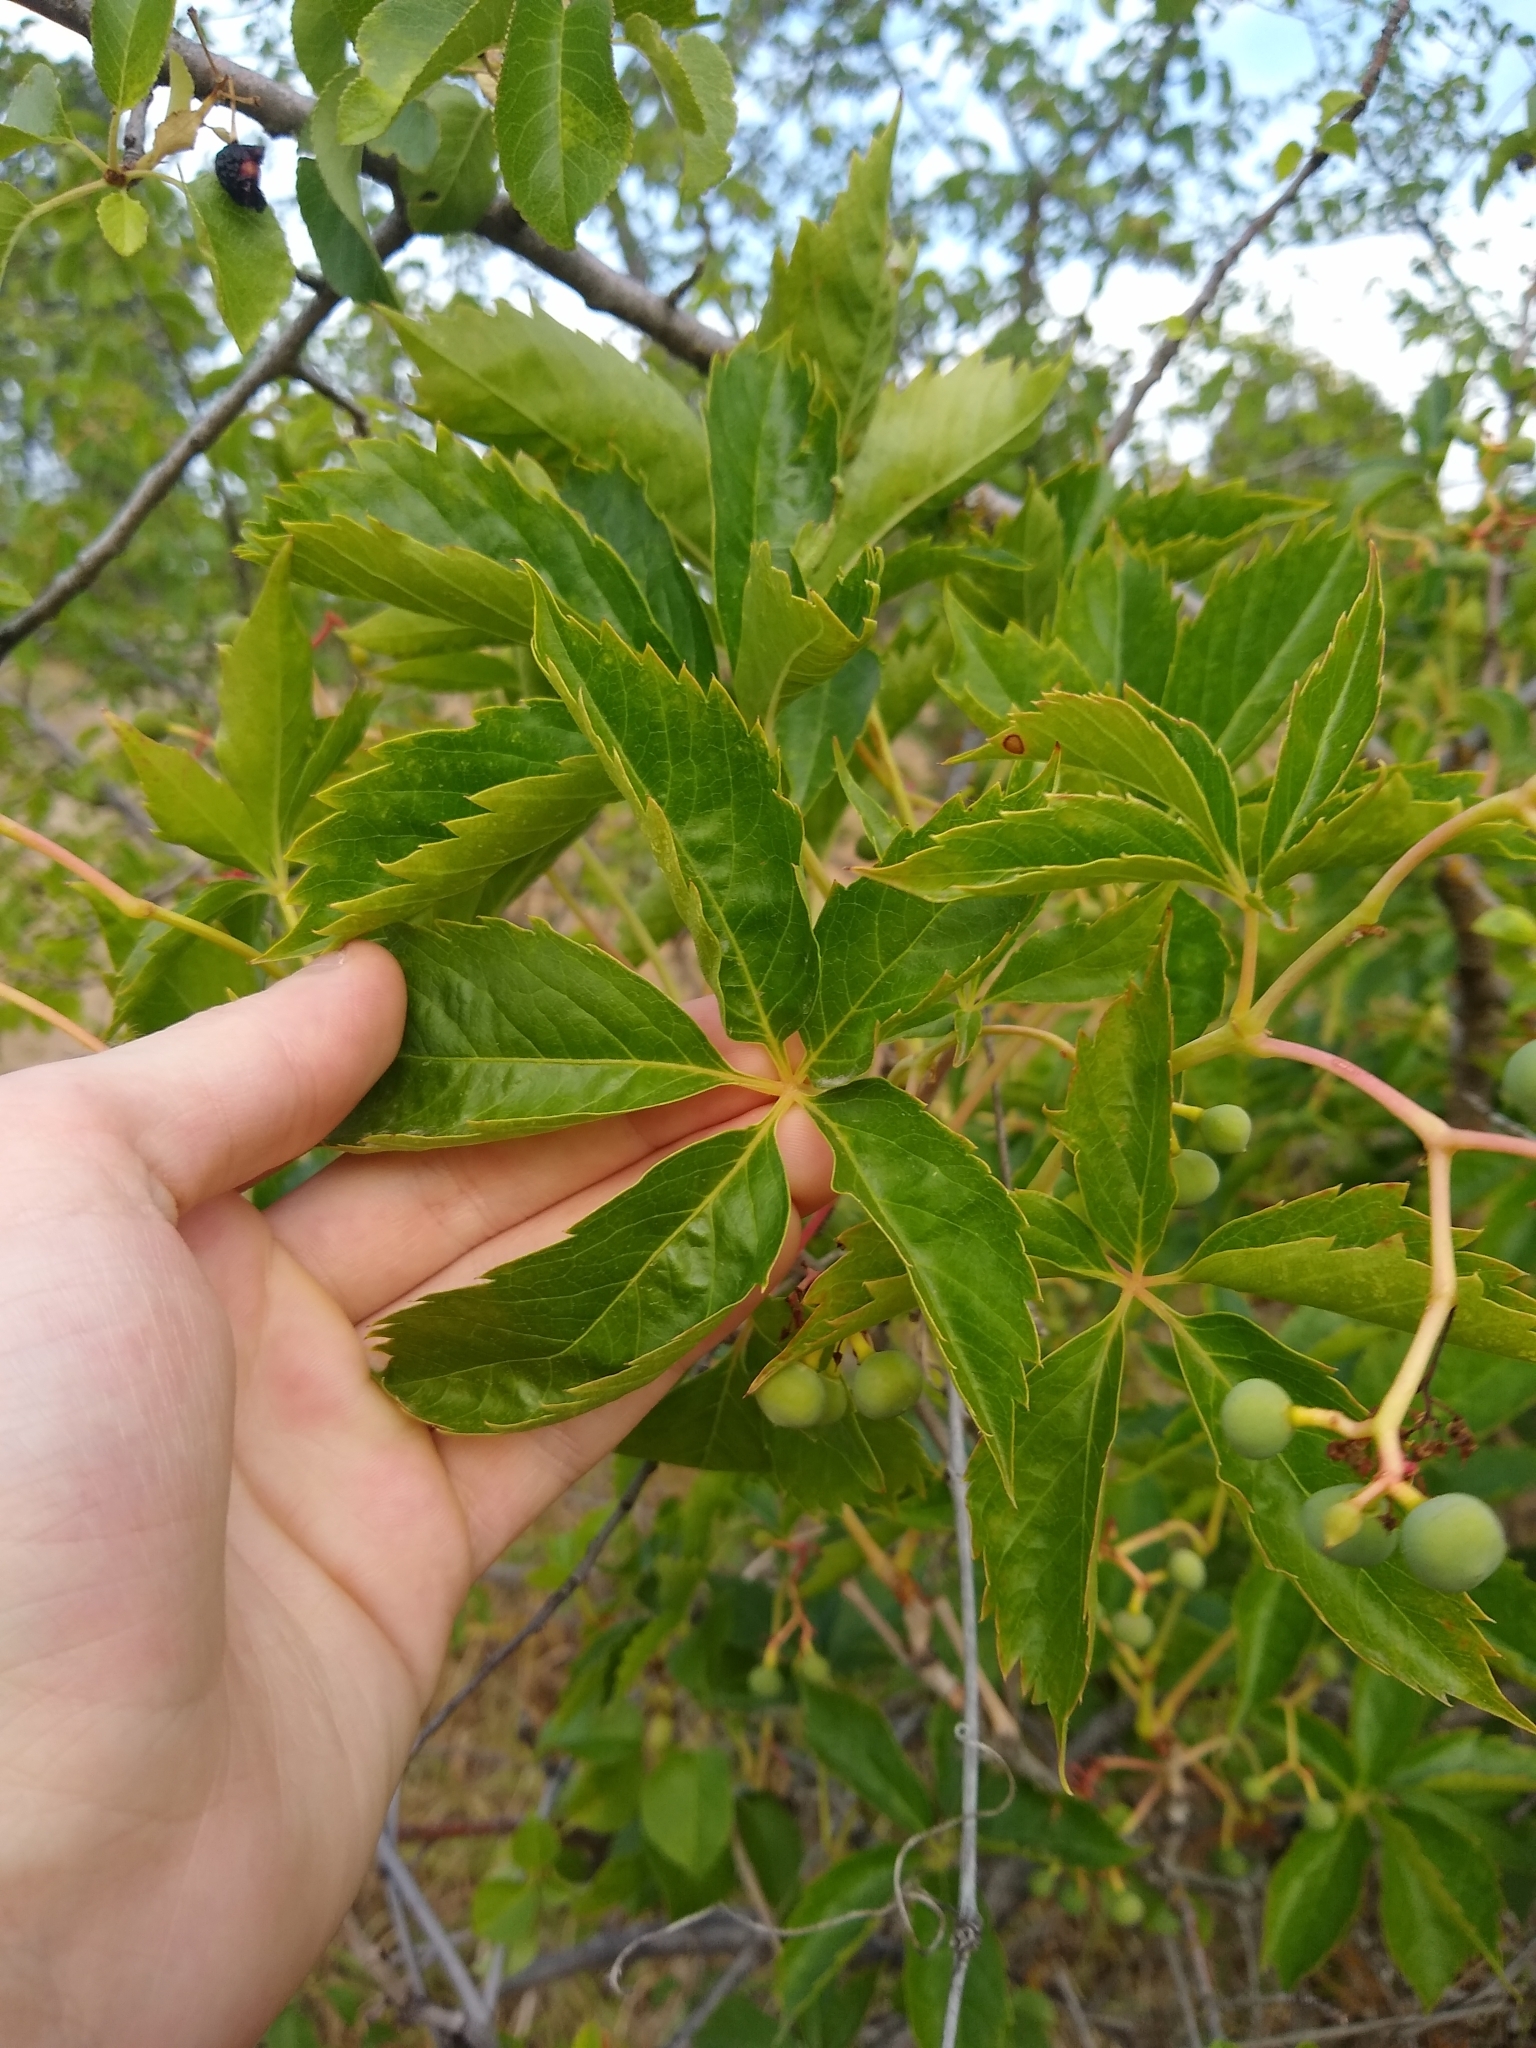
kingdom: Plantae
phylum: Tracheophyta
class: Magnoliopsida
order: Vitales
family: Vitaceae
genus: Parthenocissus
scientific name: Parthenocissus quinquefolia
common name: Virginia-creeper
